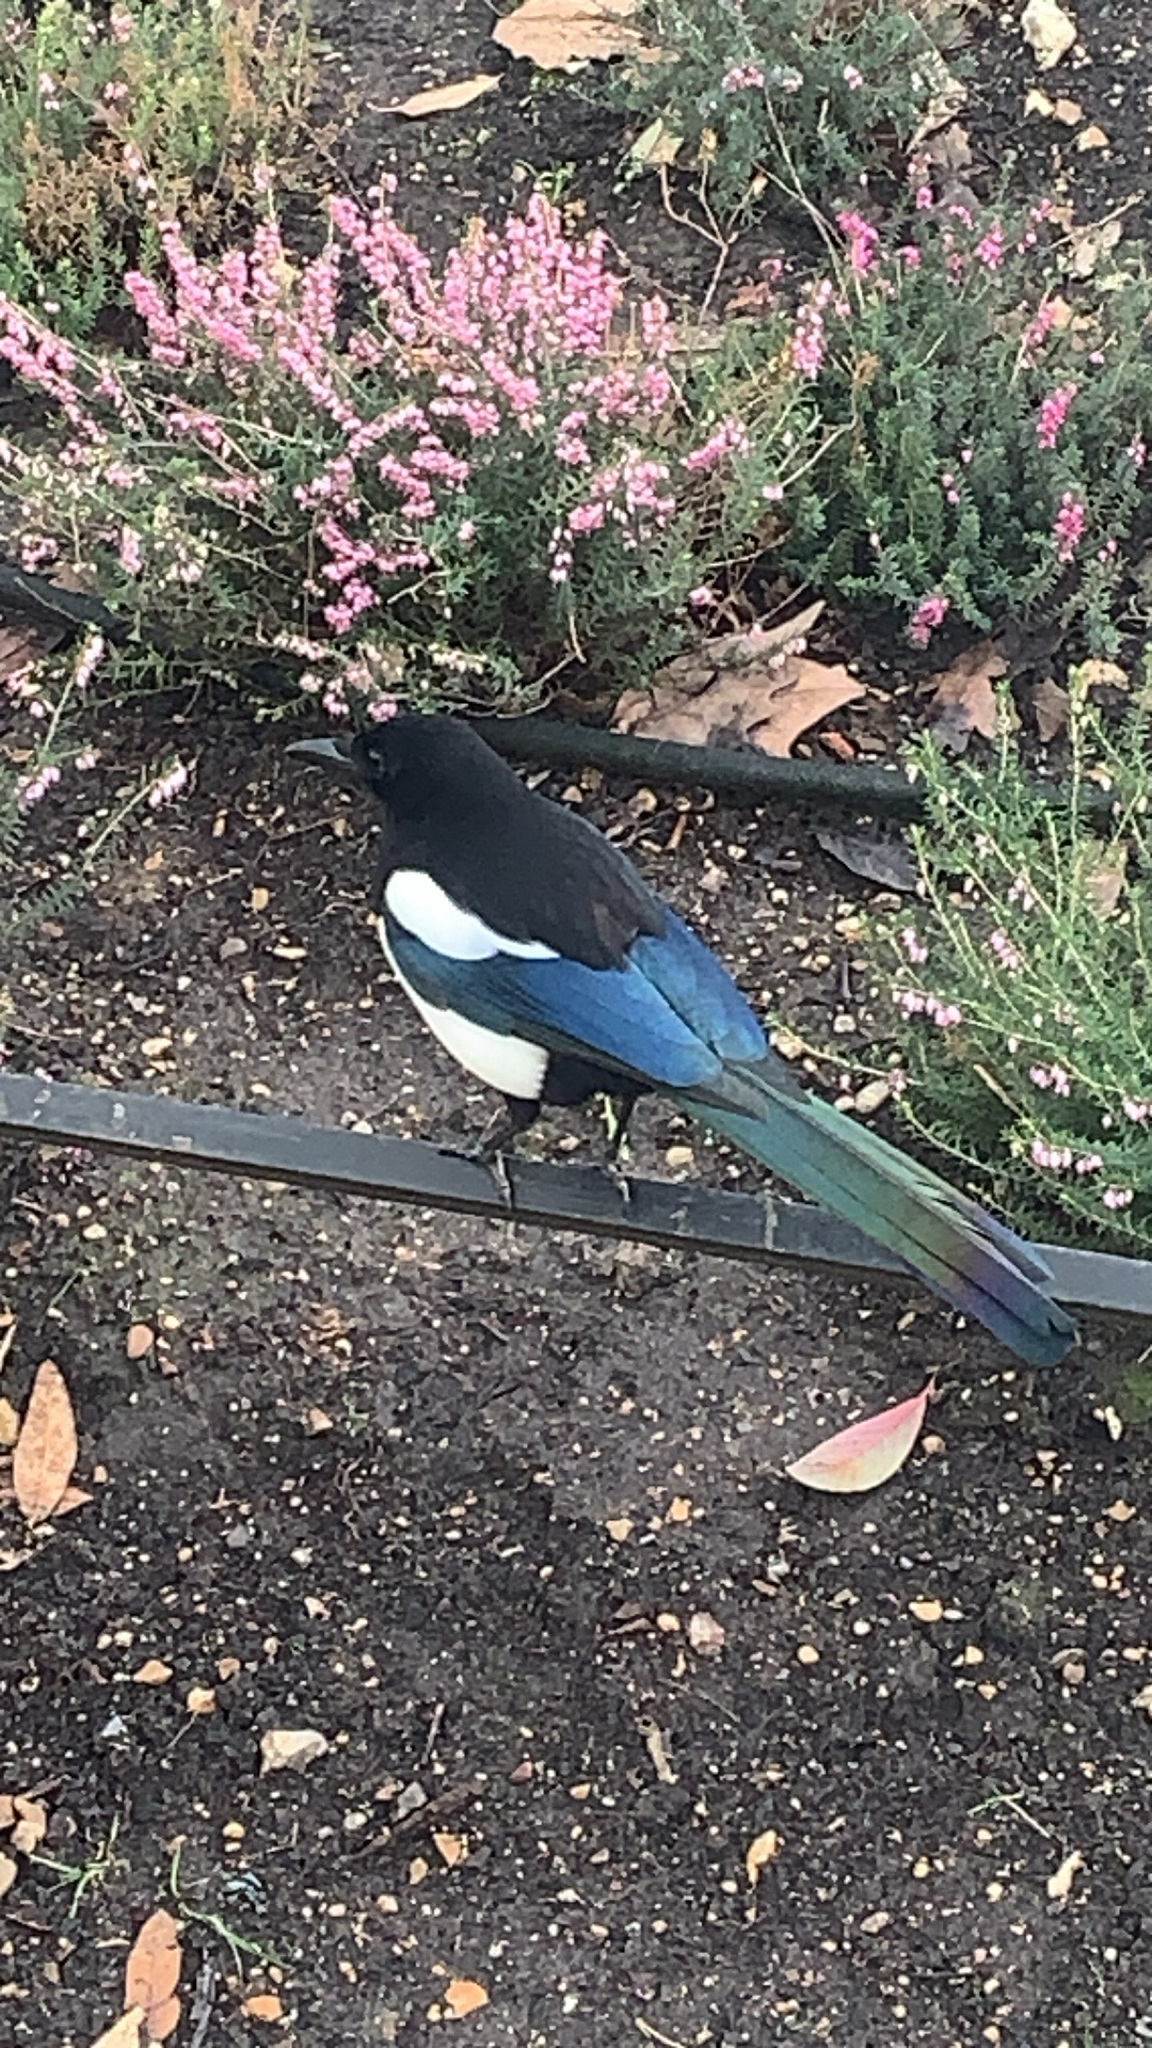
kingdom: Animalia
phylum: Chordata
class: Aves
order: Passeriformes
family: Corvidae
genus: Pica
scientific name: Pica pica
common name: Eurasian magpie
